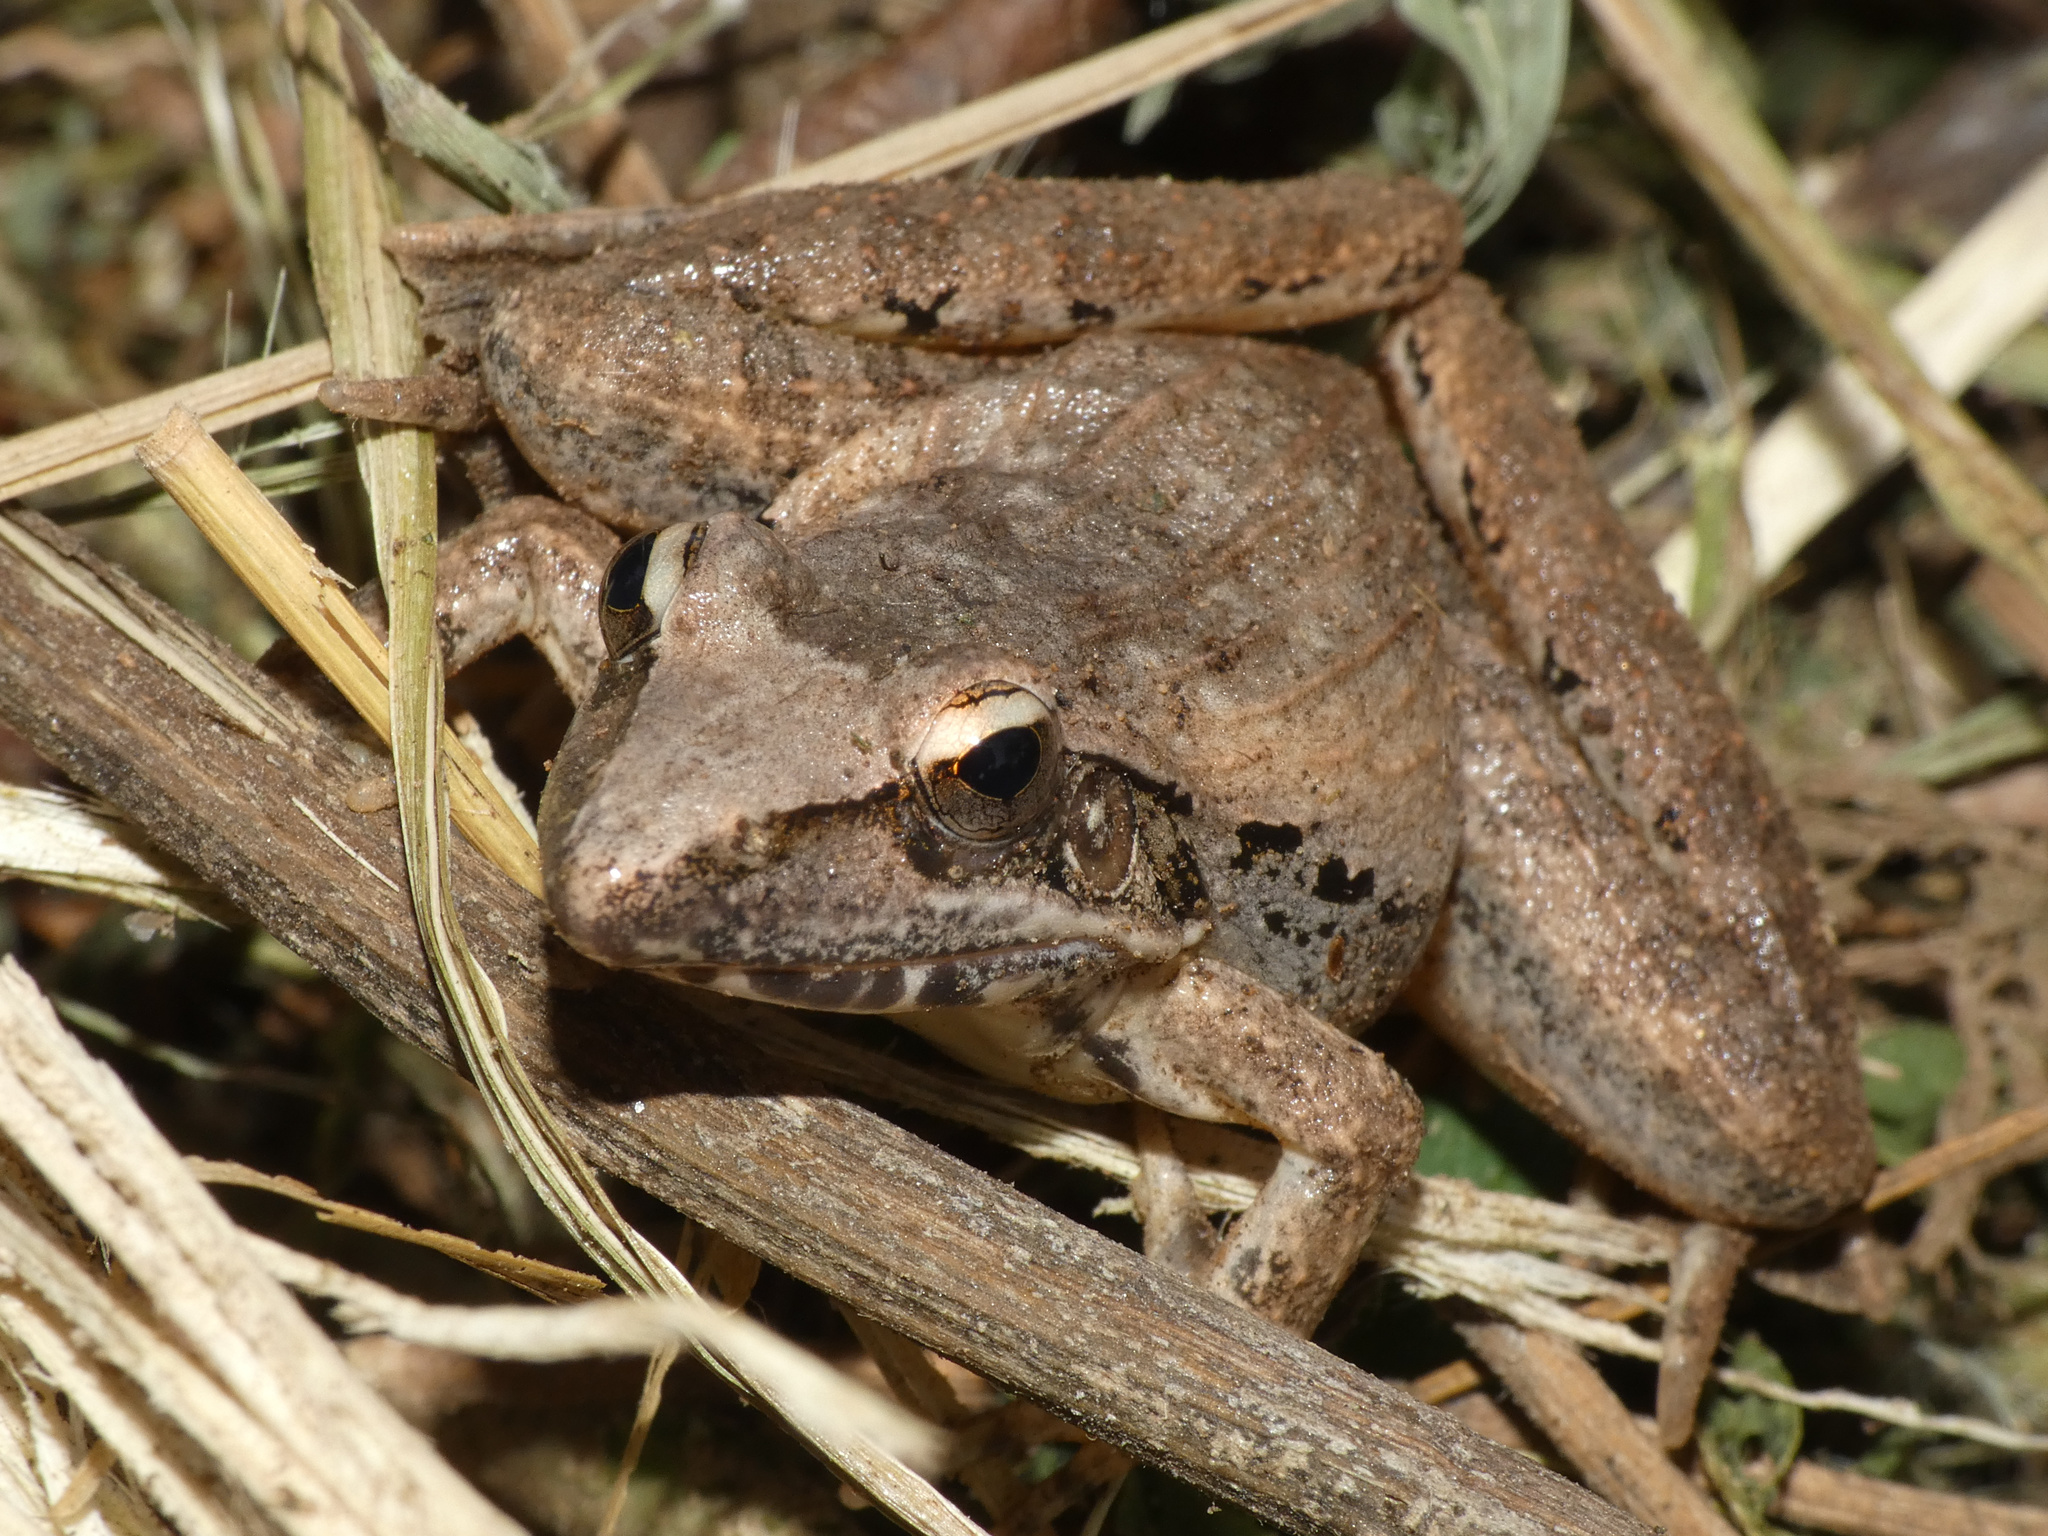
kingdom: Animalia
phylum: Chordata
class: Amphibia
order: Anura
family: Ptychadenidae
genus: Ptychadena
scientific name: Ptychadena oxyrhynchus
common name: Sharp-nosed ridged frog
